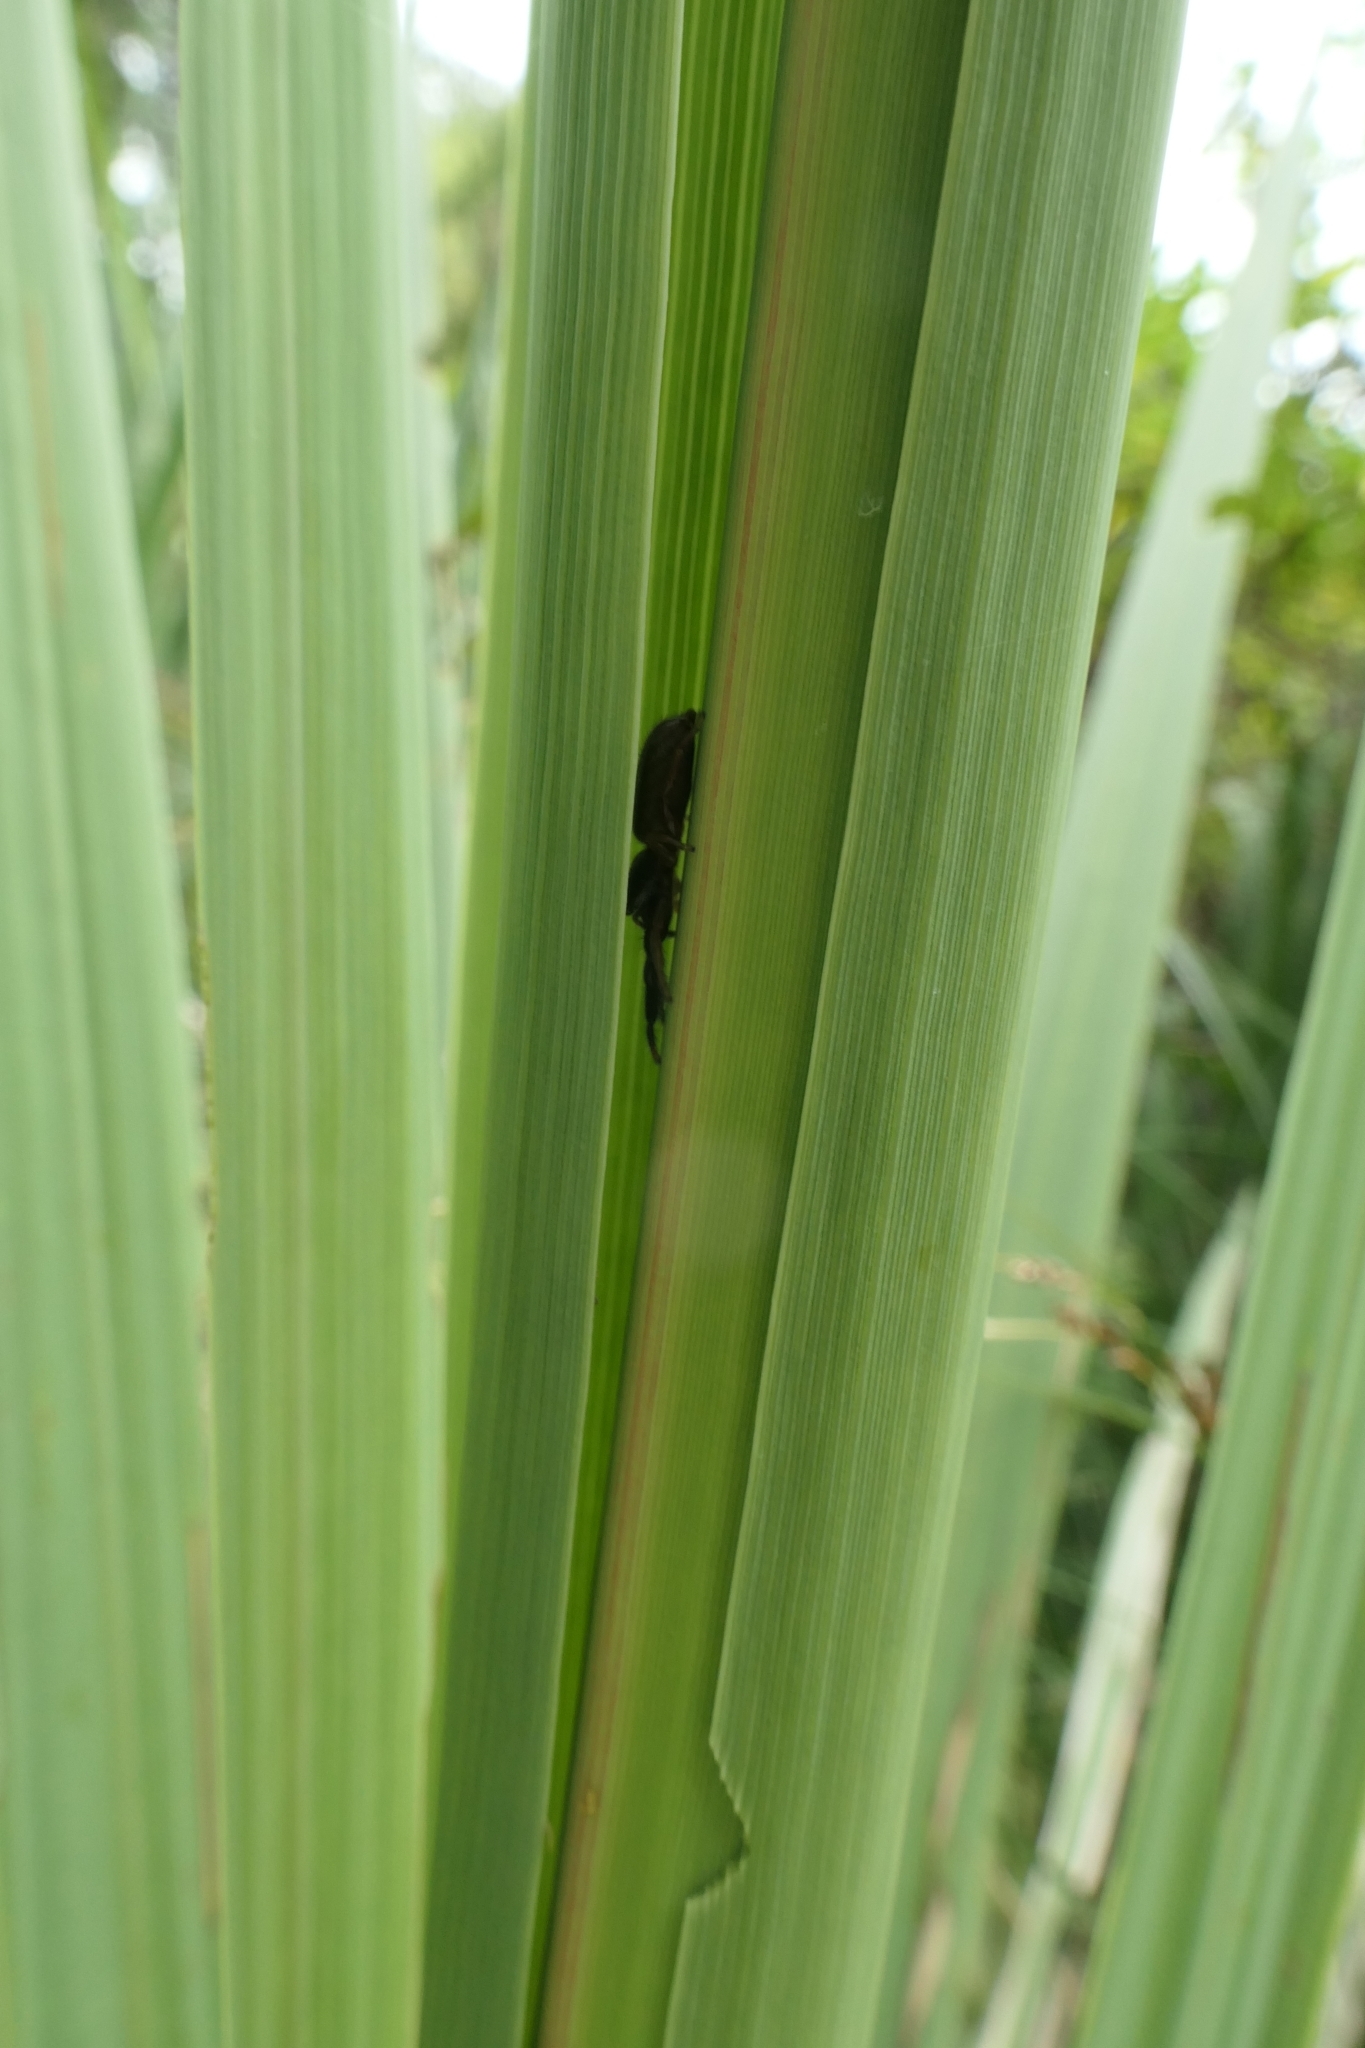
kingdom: Animalia
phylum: Arthropoda
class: Arachnida
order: Araneae
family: Salticidae
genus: Trite
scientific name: Trite planiceps
